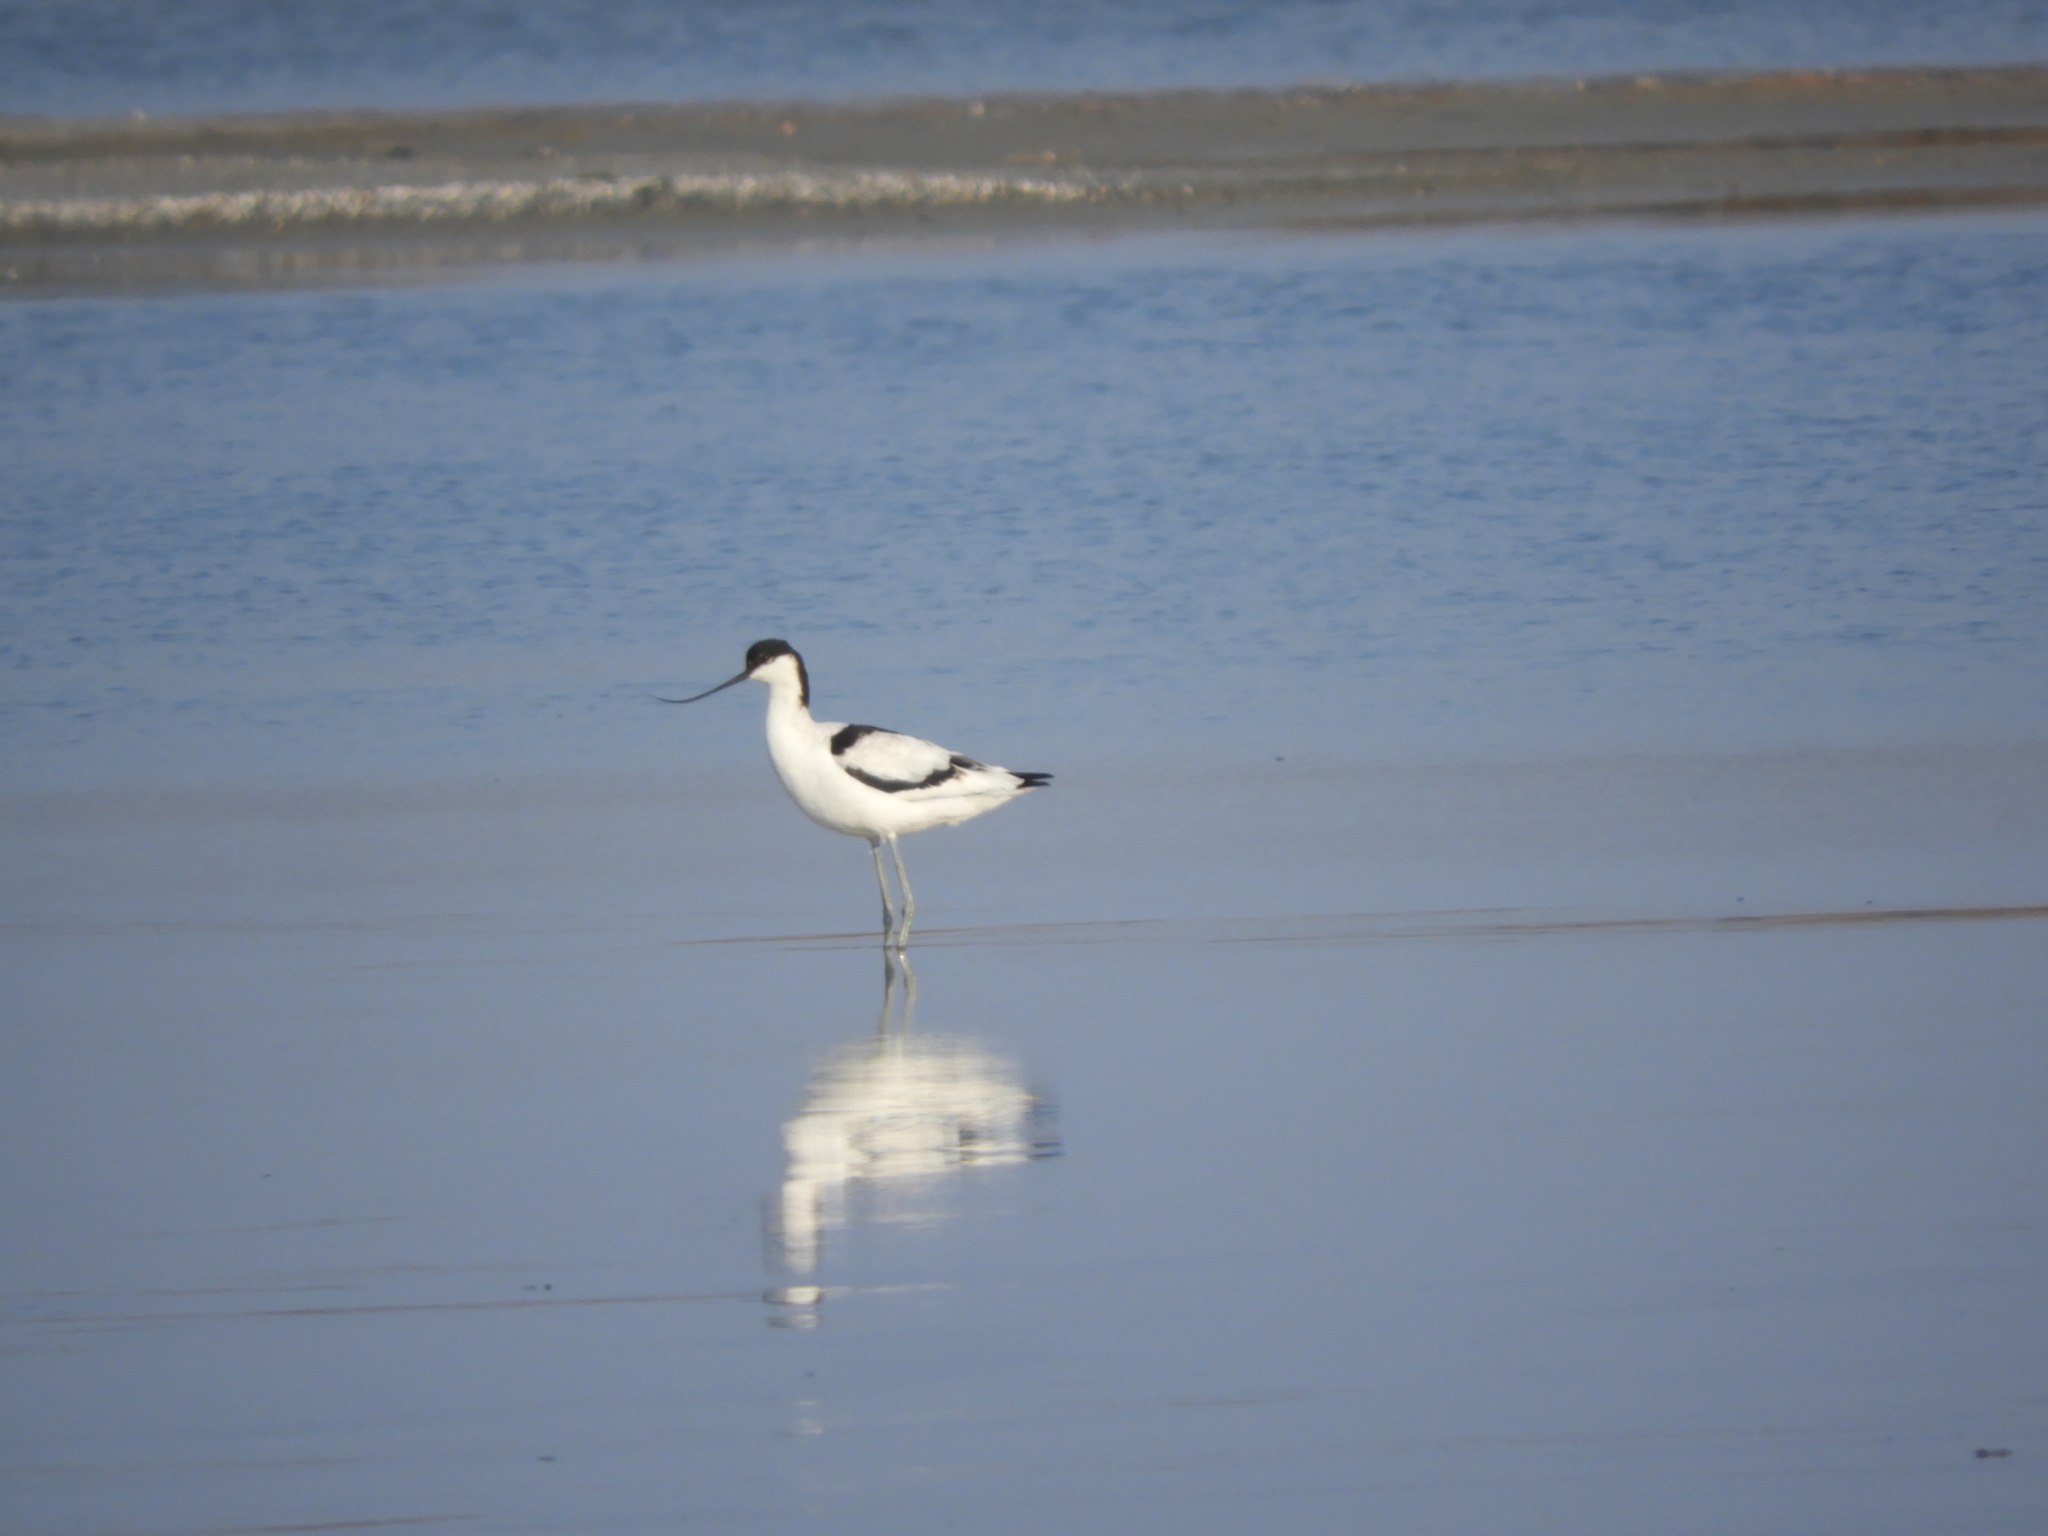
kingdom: Animalia
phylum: Chordata
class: Aves
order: Charadriiformes
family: Recurvirostridae
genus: Recurvirostra
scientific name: Recurvirostra avosetta
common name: Pied avocet
